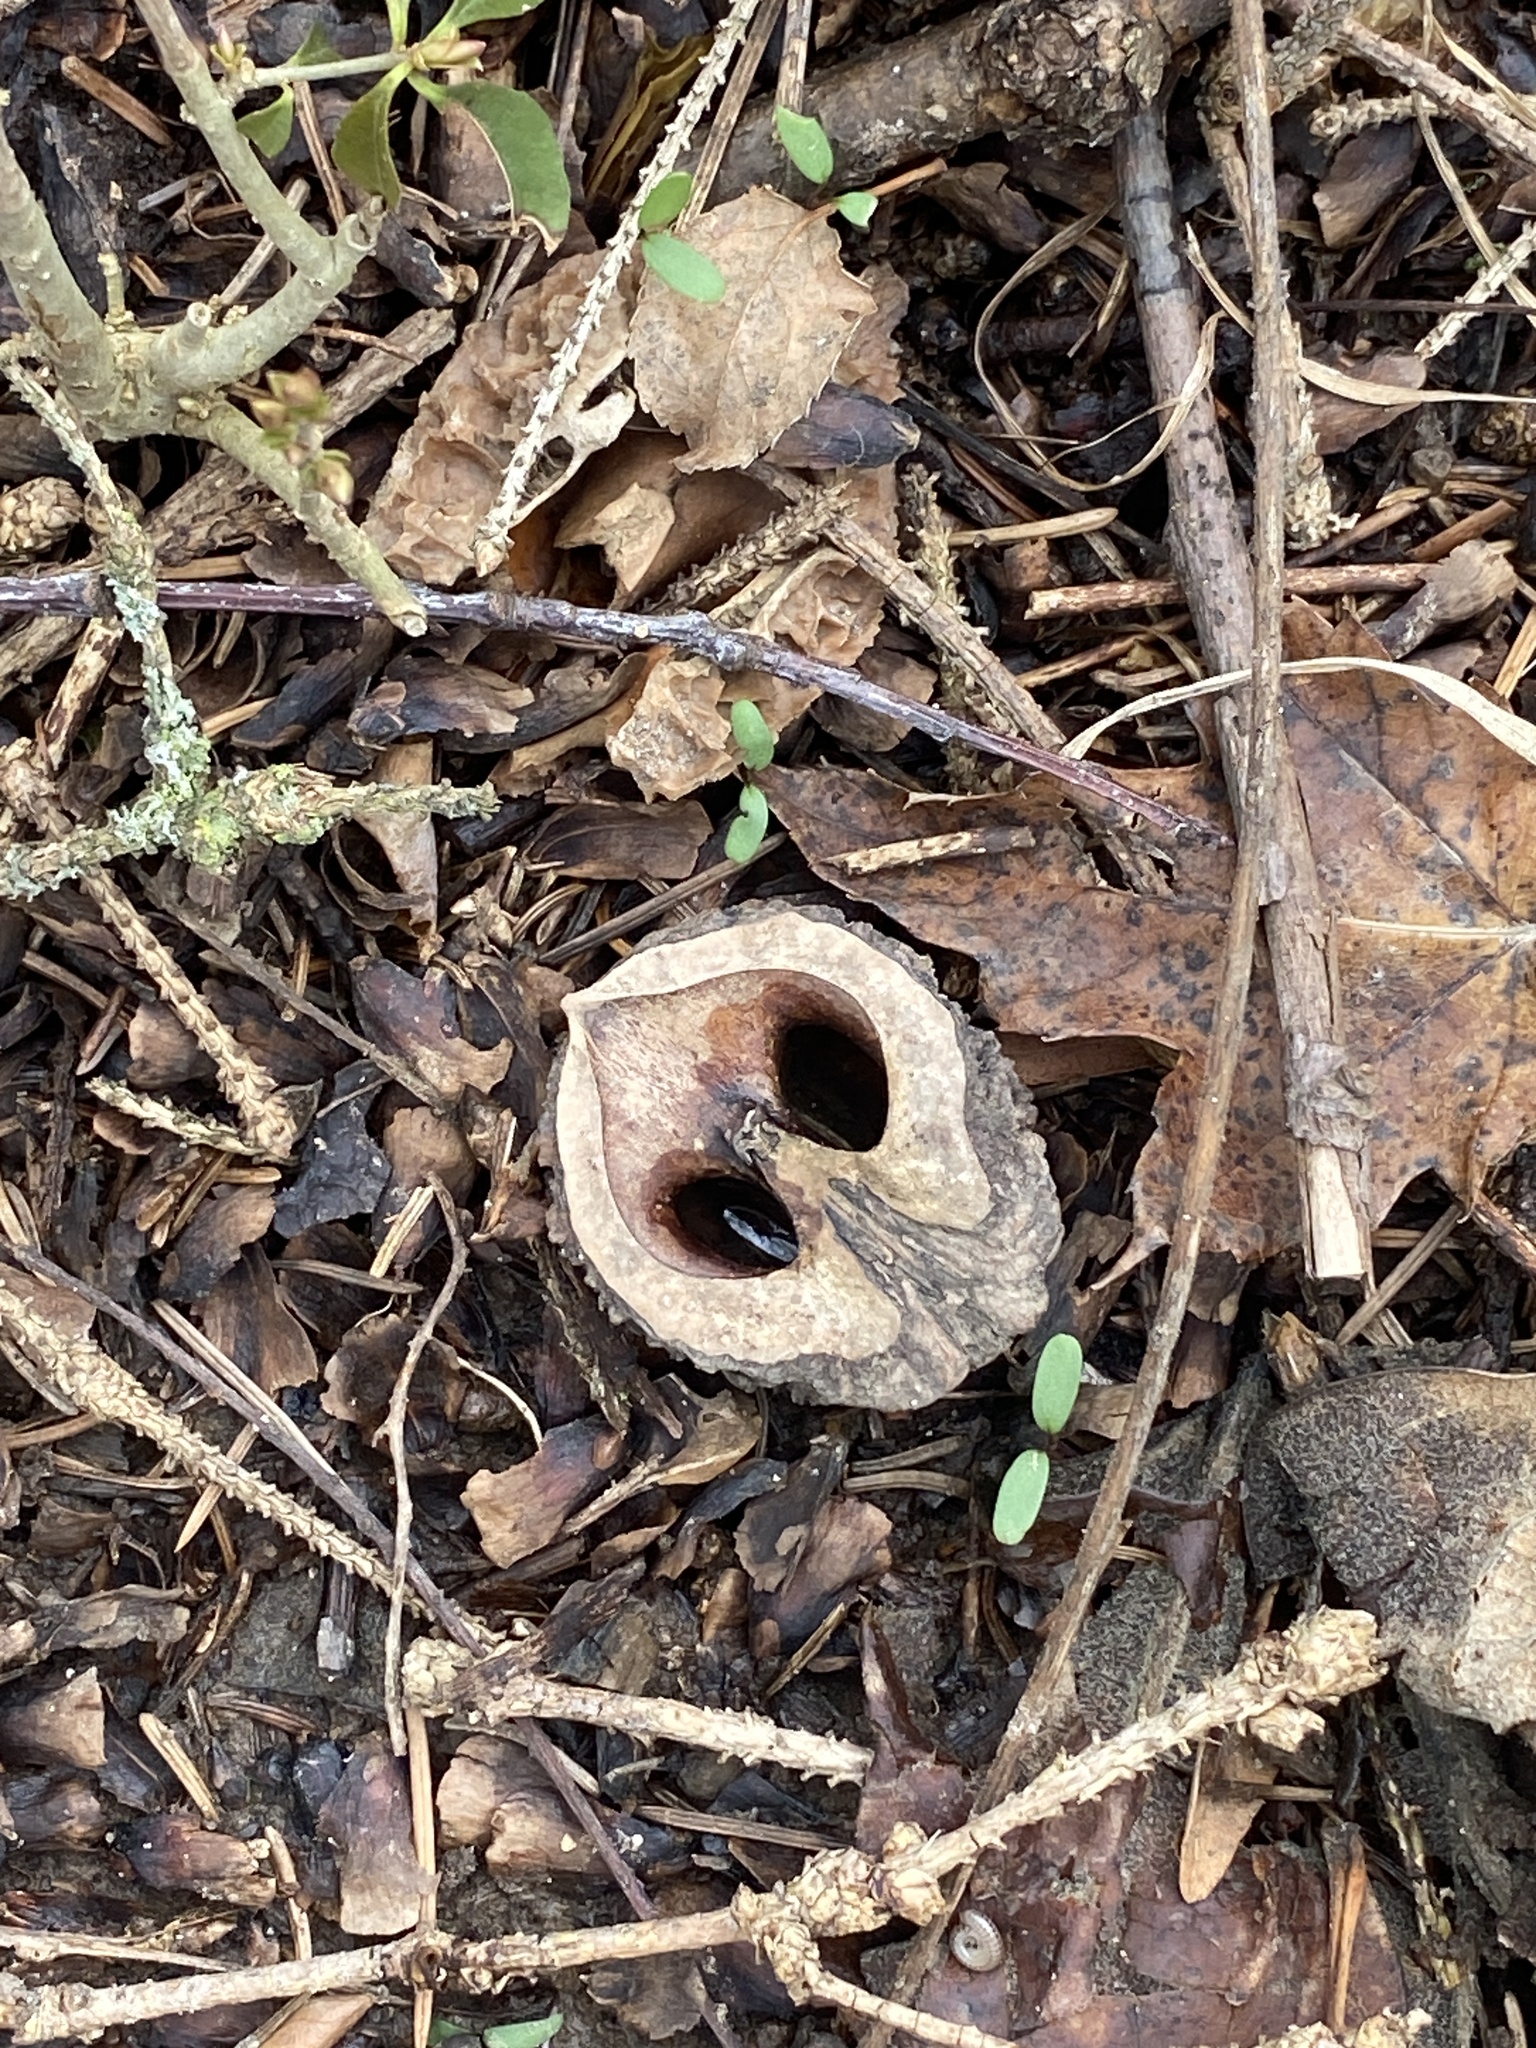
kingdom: Plantae
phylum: Tracheophyta
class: Magnoliopsida
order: Fagales
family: Juglandaceae
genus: Juglans
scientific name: Juglans nigra
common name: Black walnut
